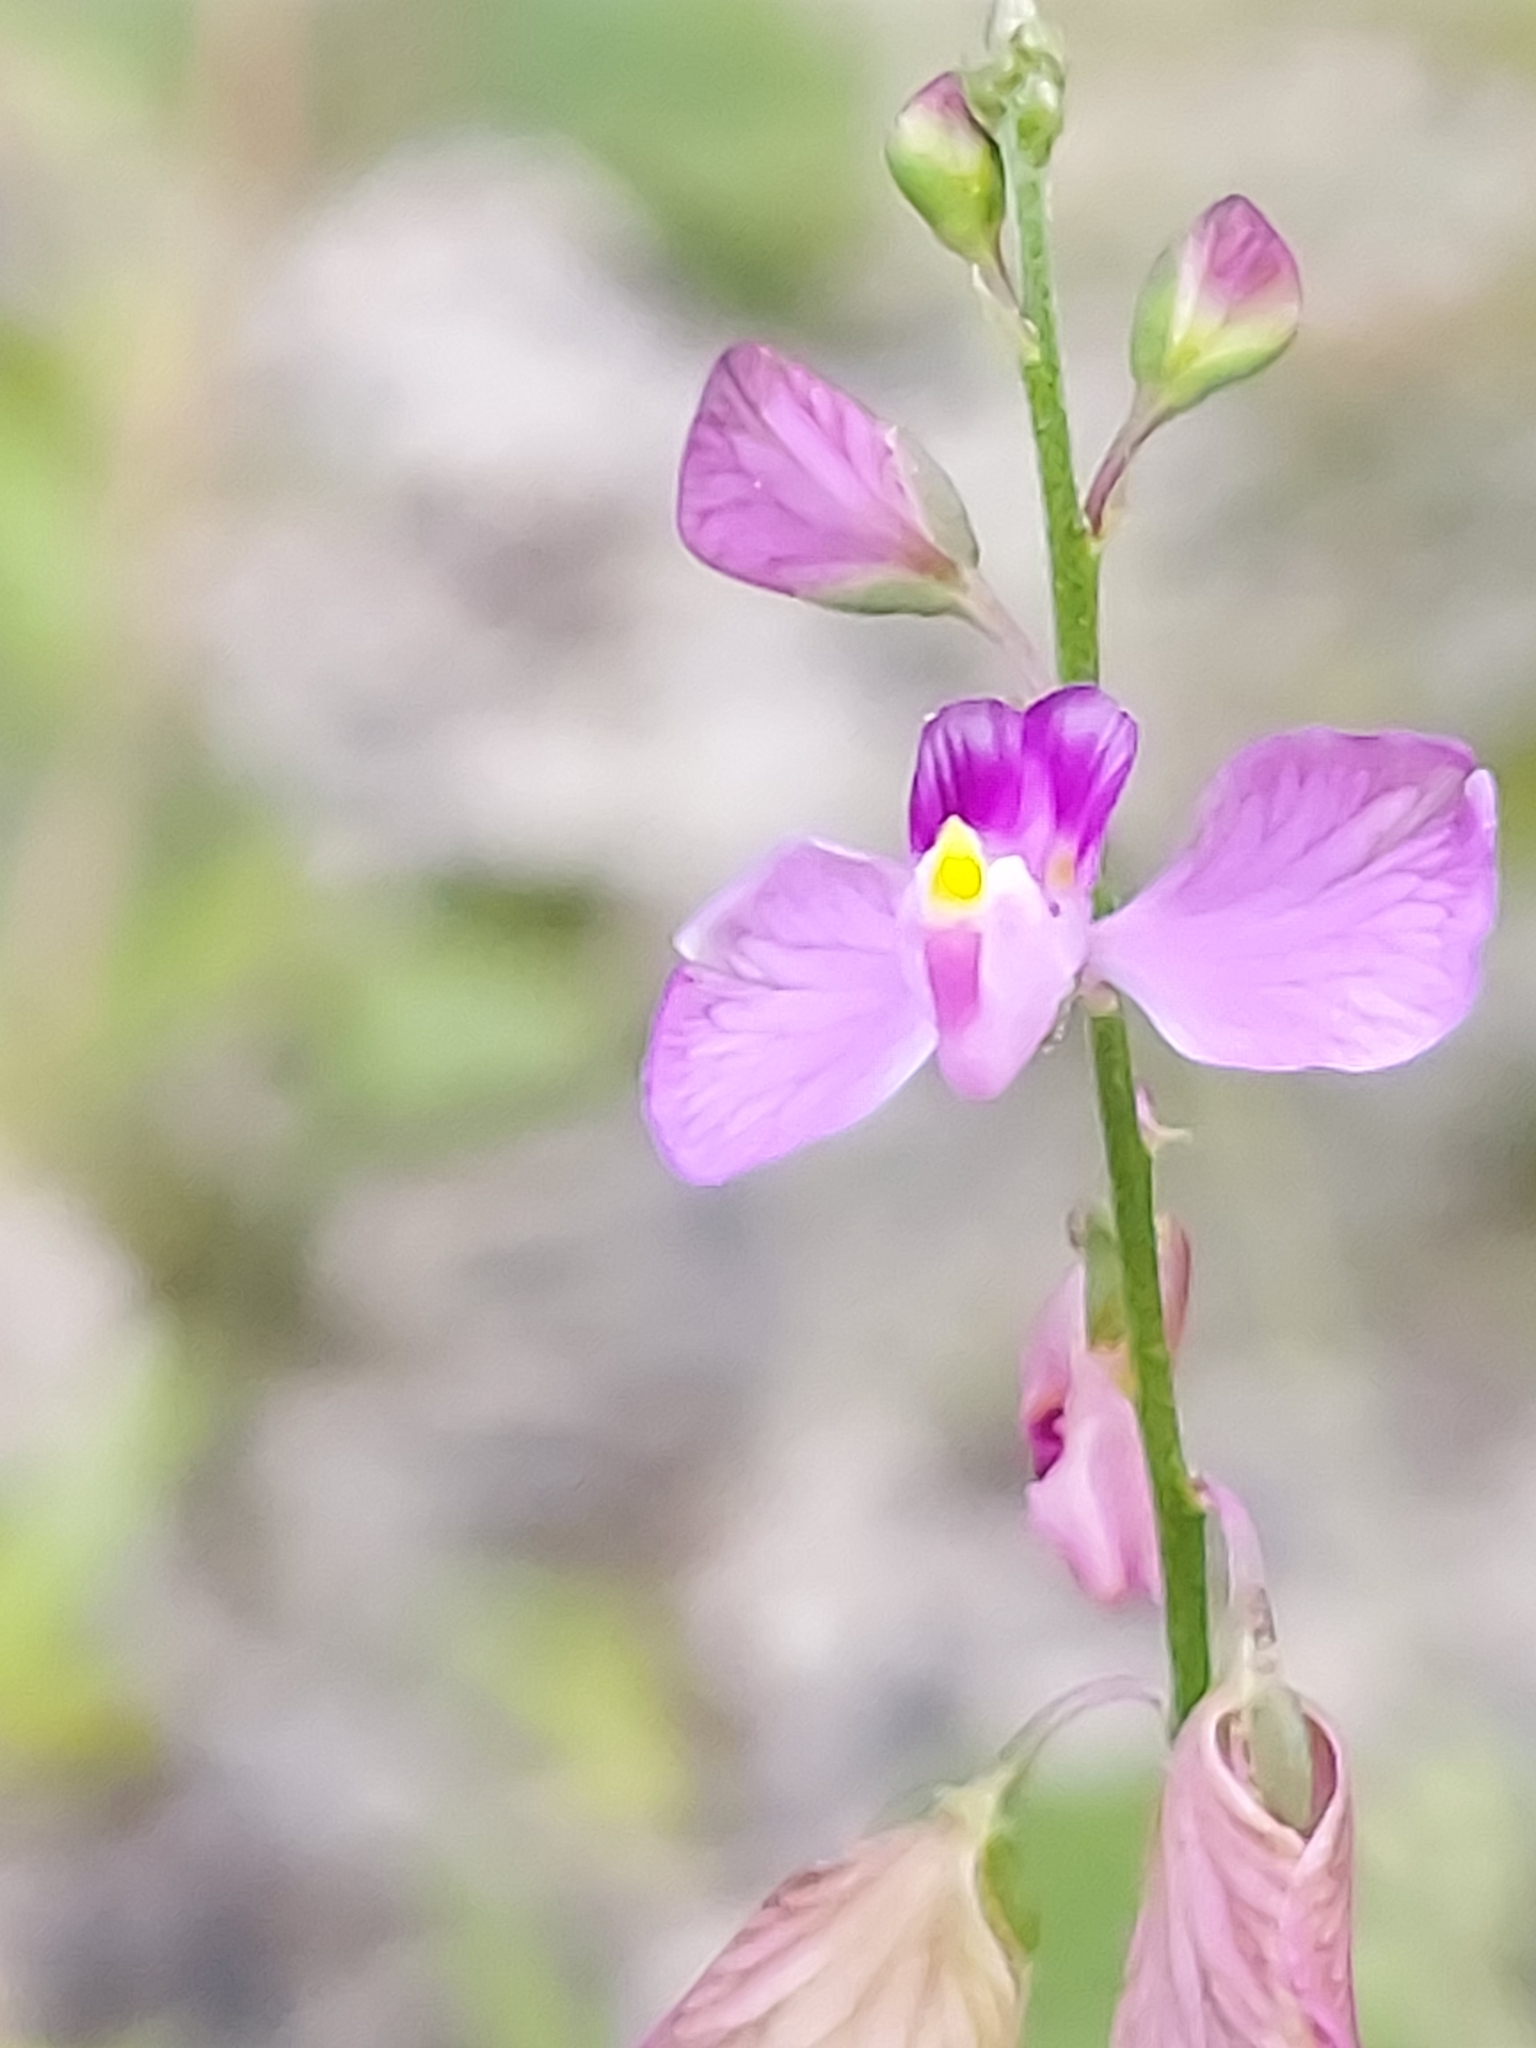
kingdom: Plantae
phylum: Tracheophyta
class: Magnoliopsida
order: Fabales
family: Polygalaceae
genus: Asemeia
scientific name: Asemeia grandiflora
